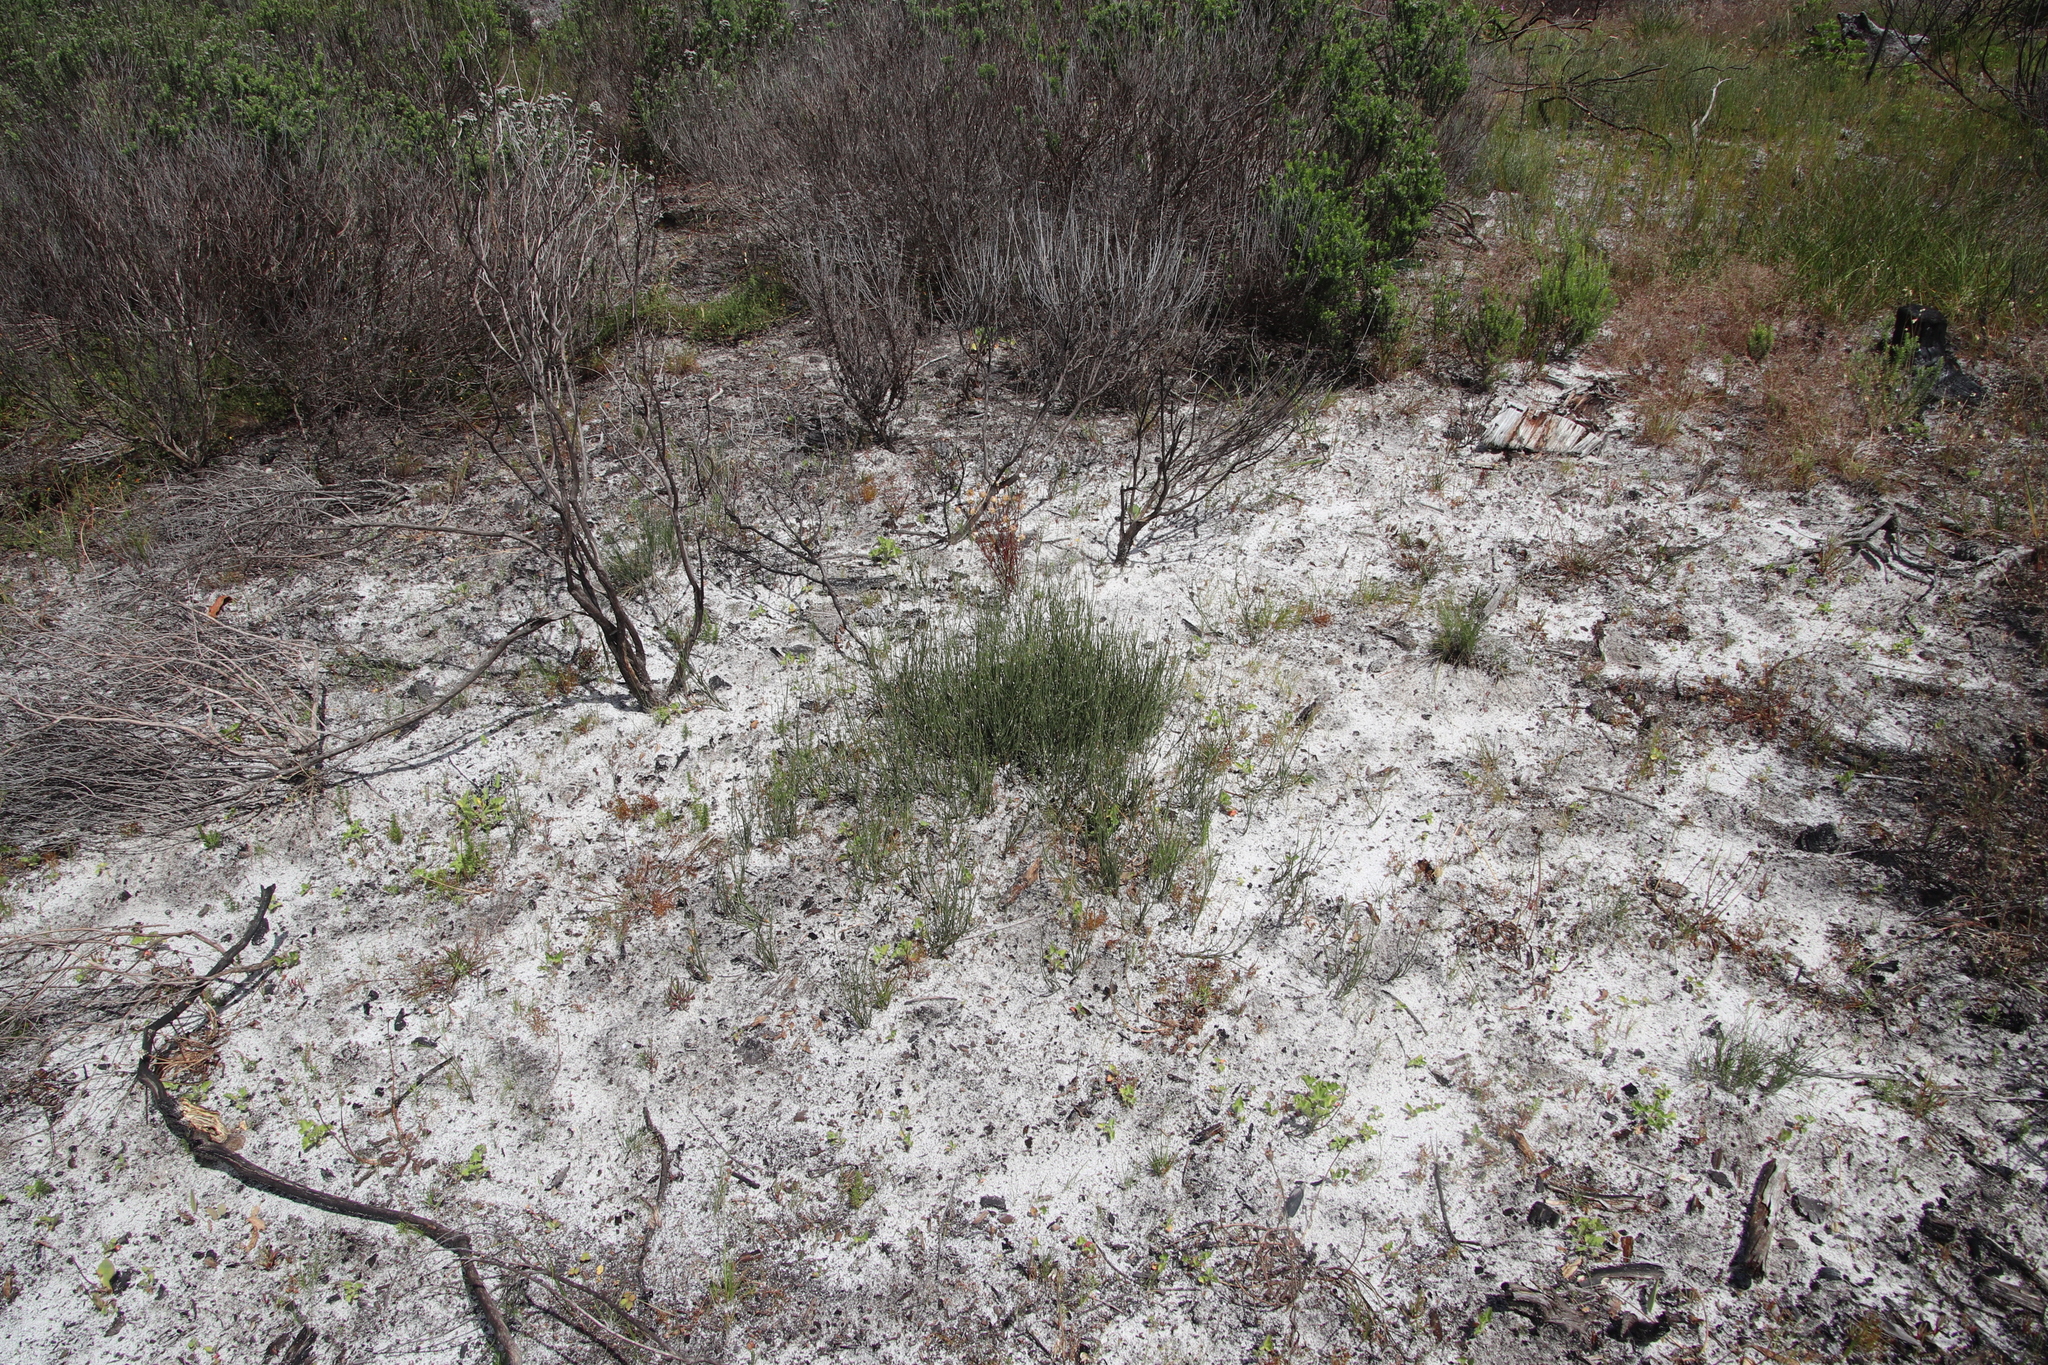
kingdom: Plantae
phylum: Tracheophyta
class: Liliopsida
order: Poales
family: Restionaceae
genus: Restio
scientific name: Restio capensis
